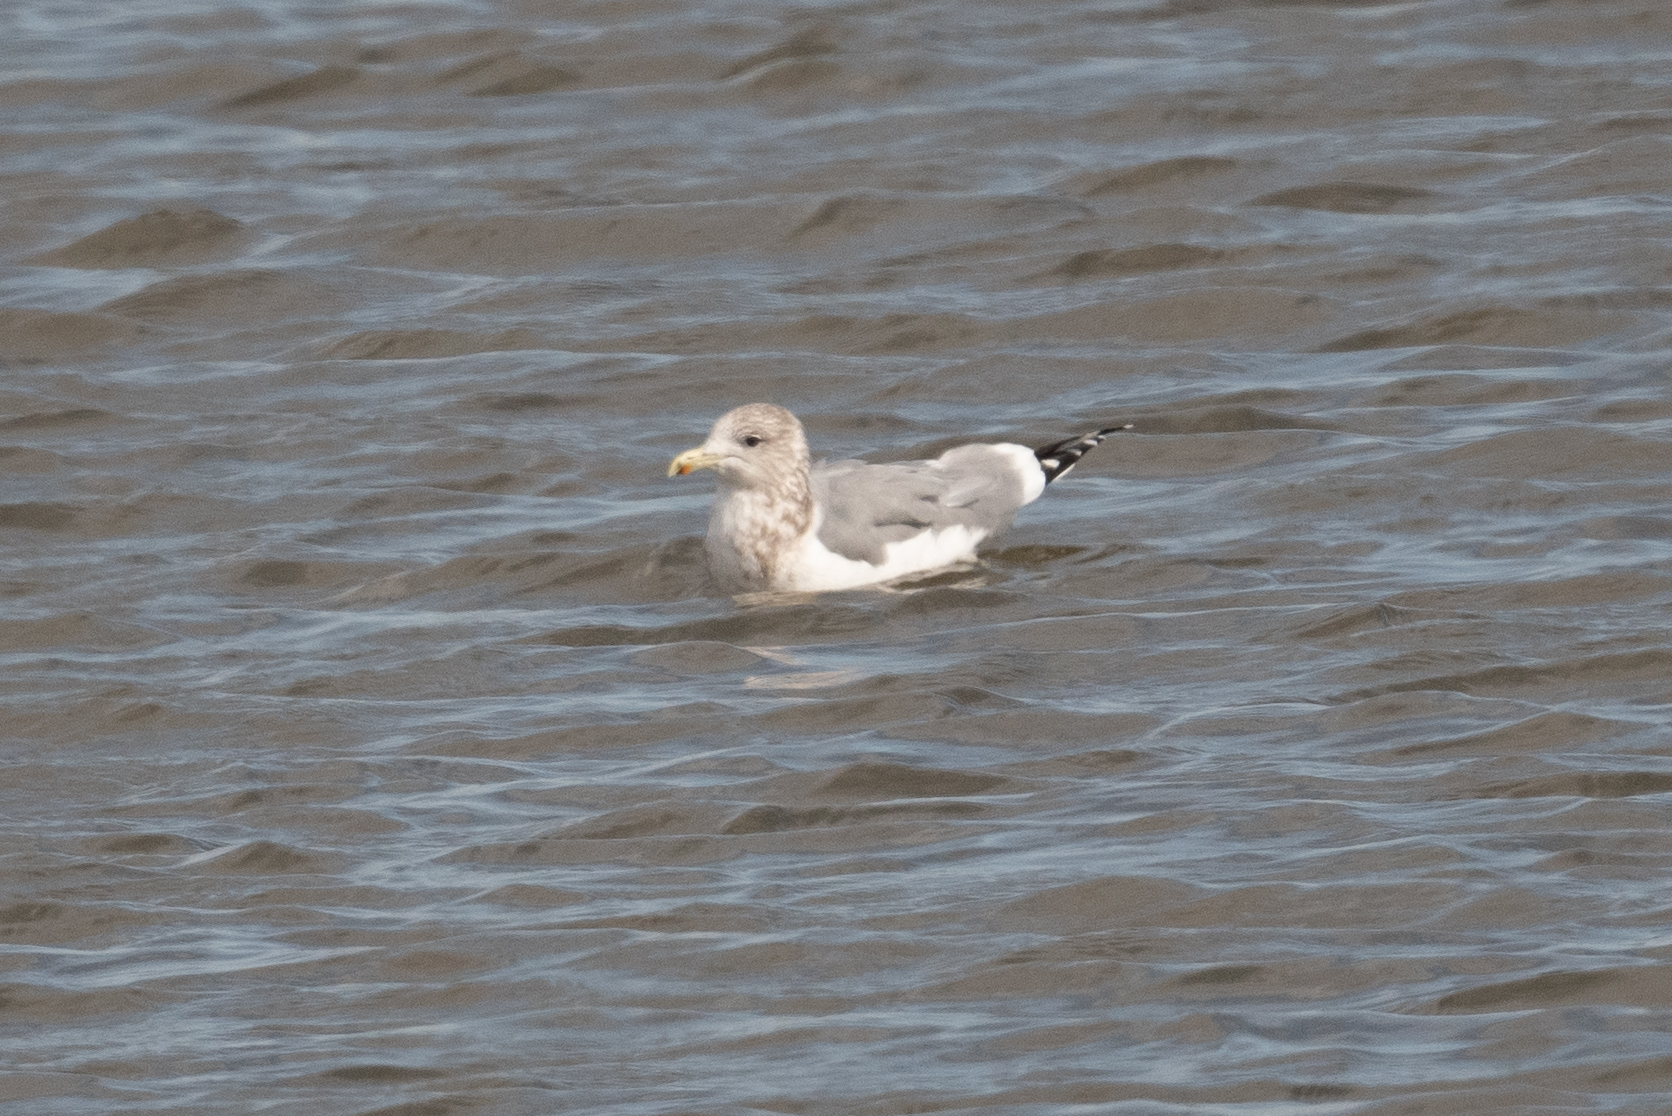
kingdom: Animalia
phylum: Chordata
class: Aves
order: Charadriiformes
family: Laridae
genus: Larus
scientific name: Larus californicus
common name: California gull
